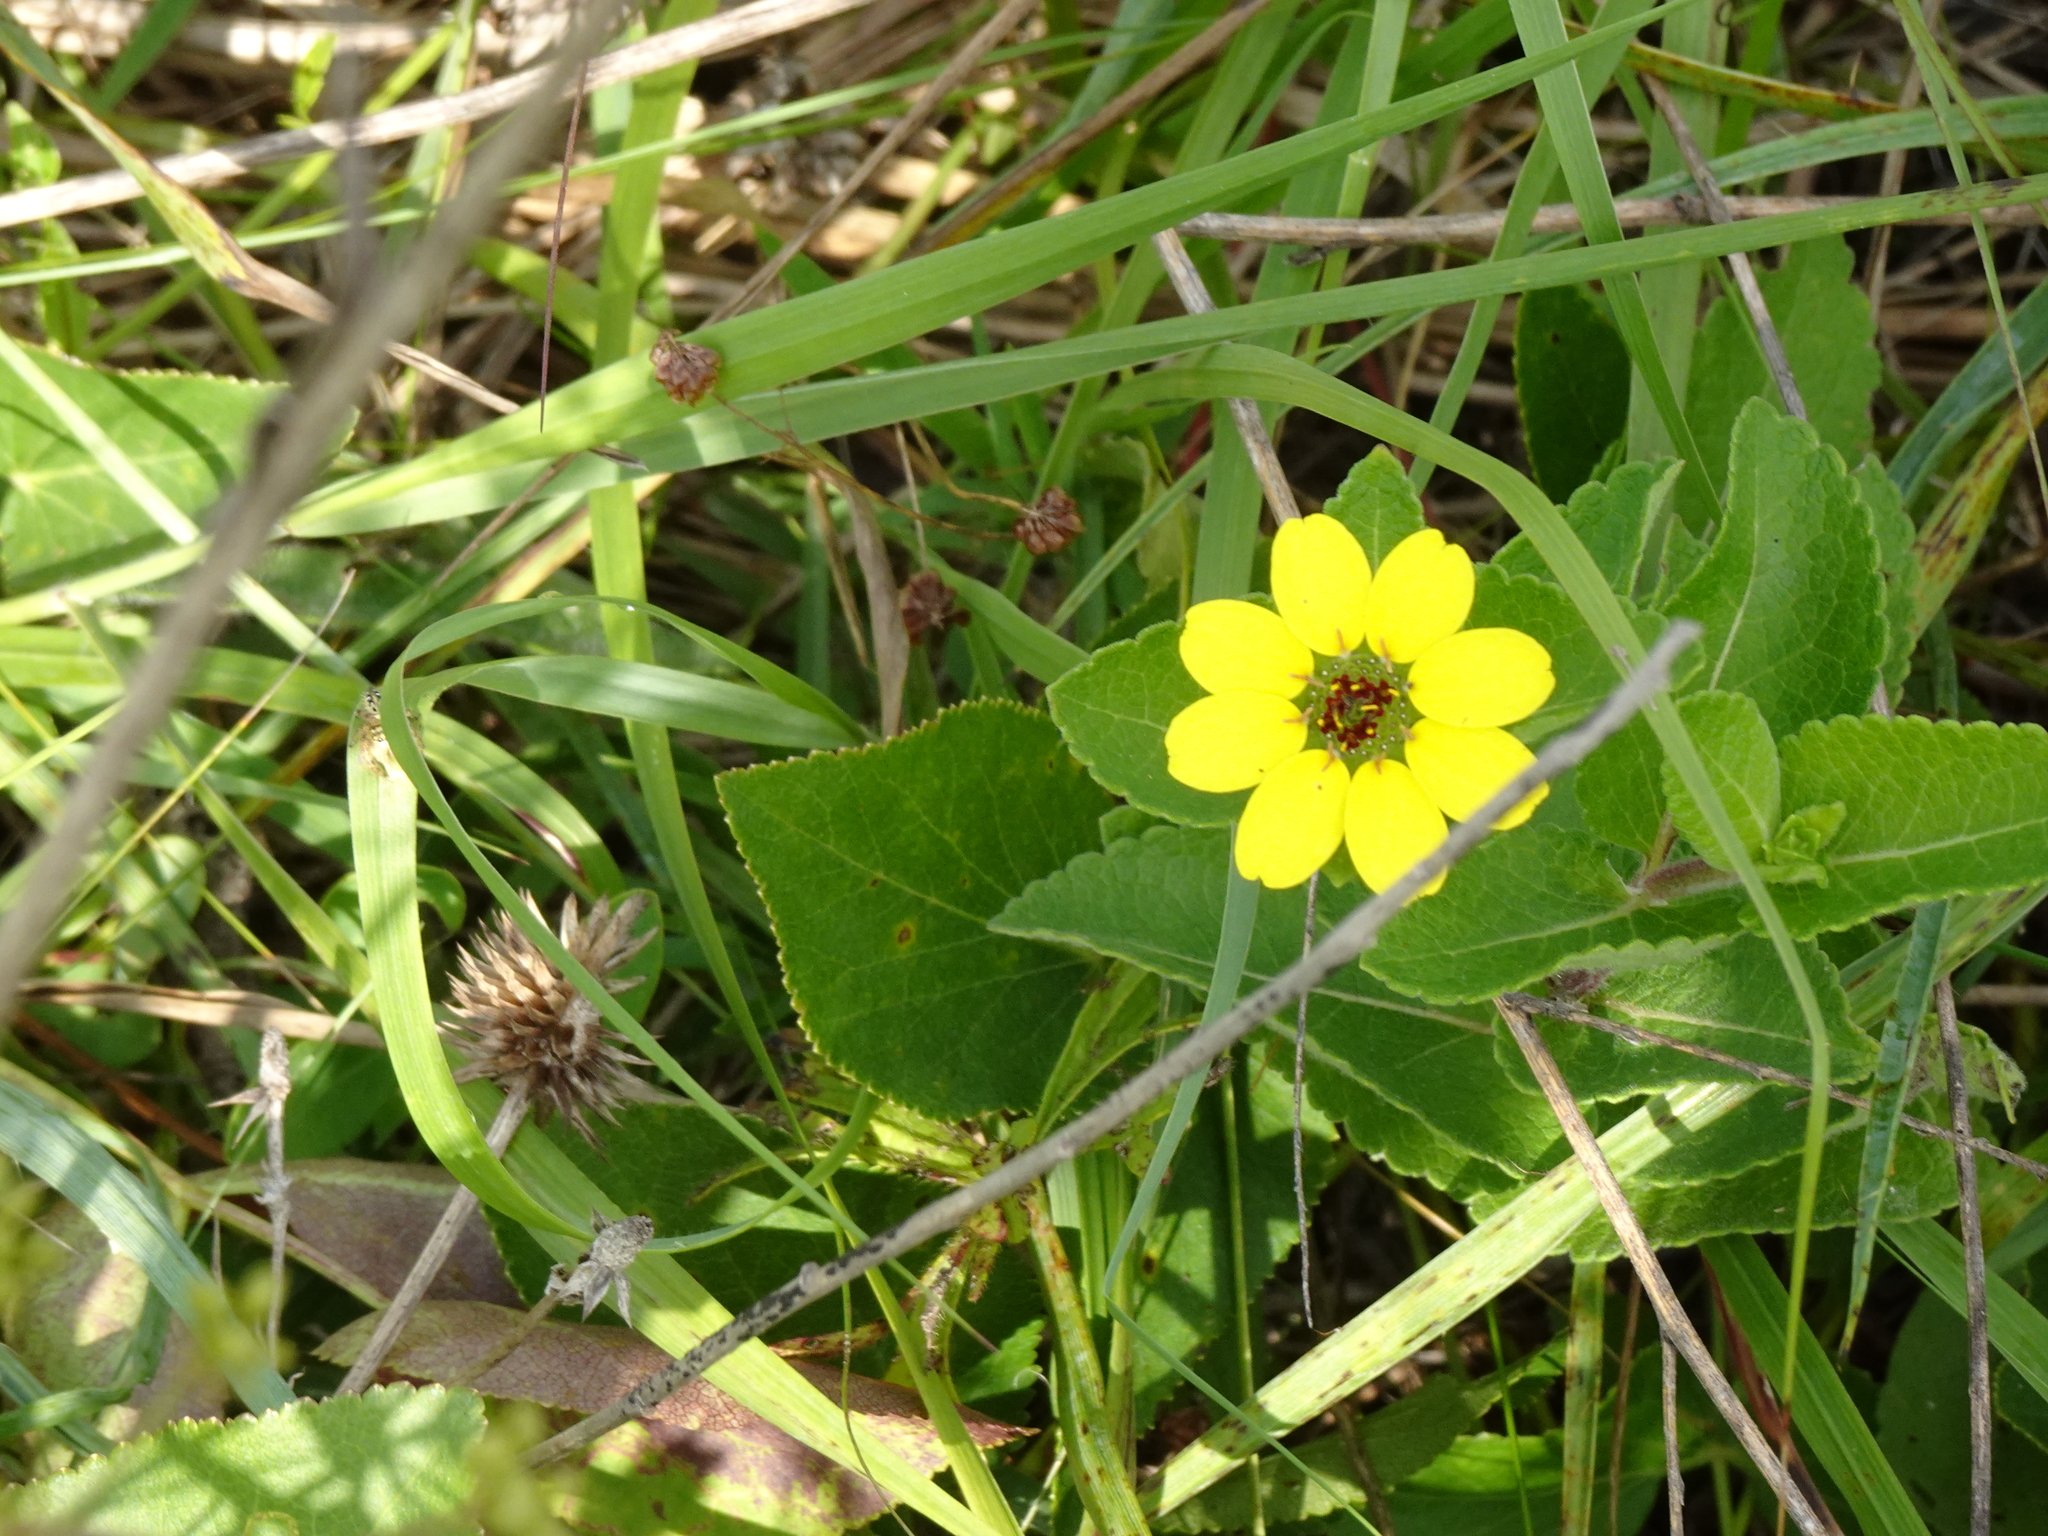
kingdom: Plantae
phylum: Tracheophyta
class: Magnoliopsida
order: Asterales
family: Asteraceae
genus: Berlandiera
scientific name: Berlandiera betonicifolia
